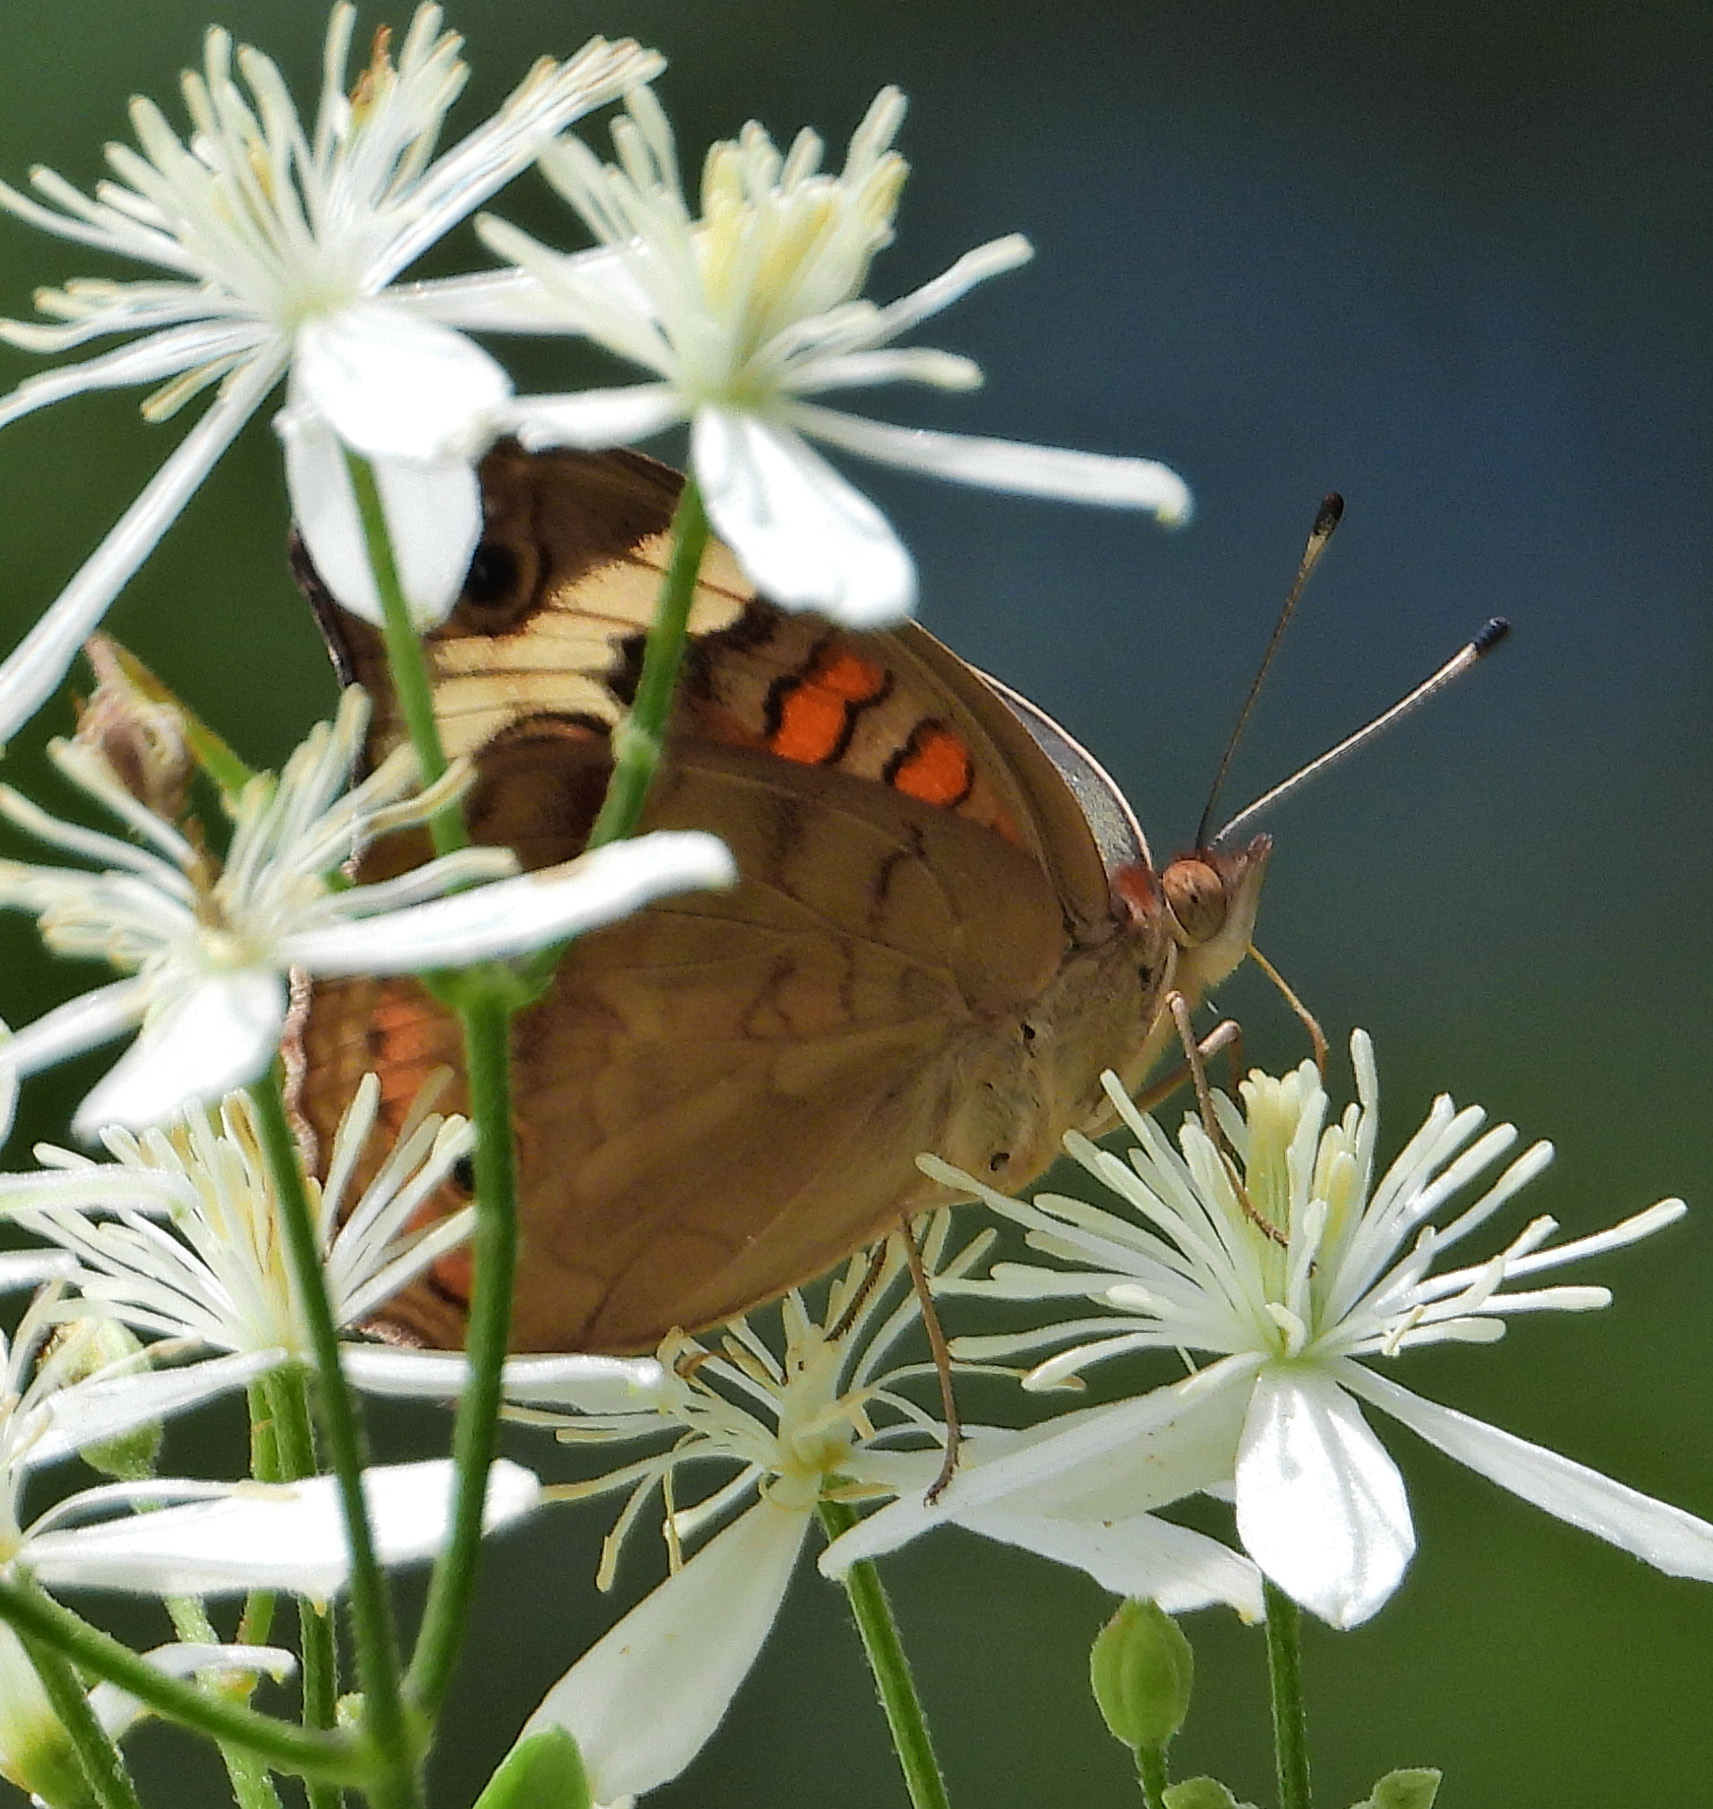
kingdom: Animalia
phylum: Arthropoda
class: Insecta
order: Lepidoptera
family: Nymphalidae
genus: Junonia
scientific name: Junonia coenia
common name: Common buckeye
